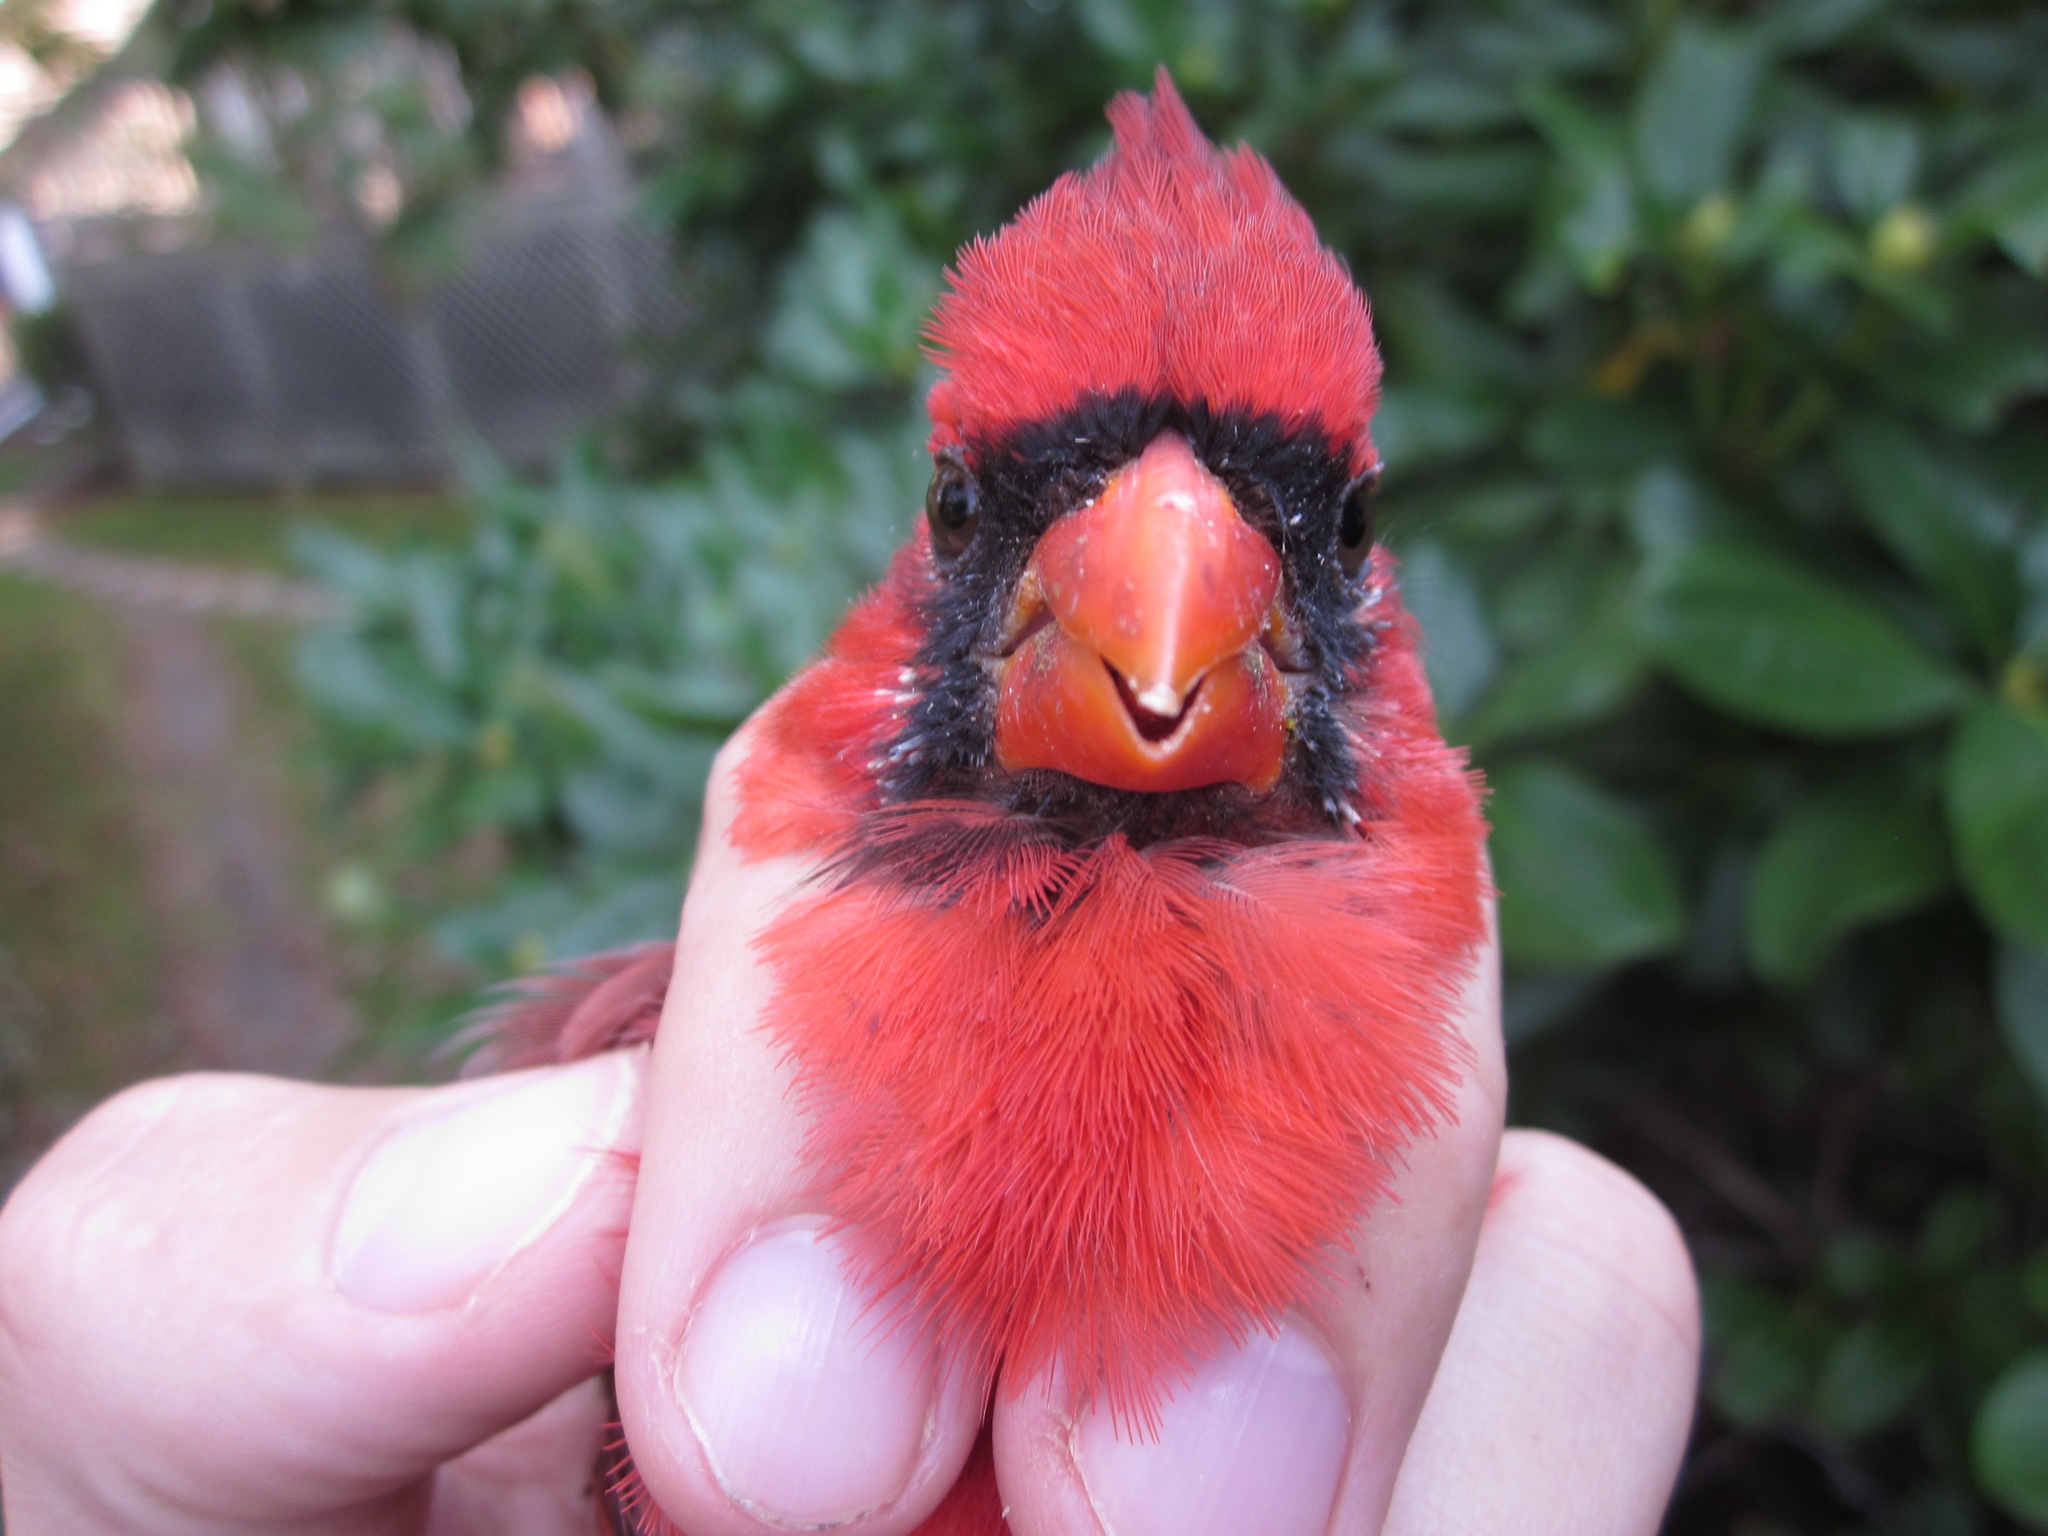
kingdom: Animalia
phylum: Chordata
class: Aves
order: Passeriformes
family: Cardinalidae
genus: Cardinalis
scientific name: Cardinalis cardinalis
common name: Northern cardinal
